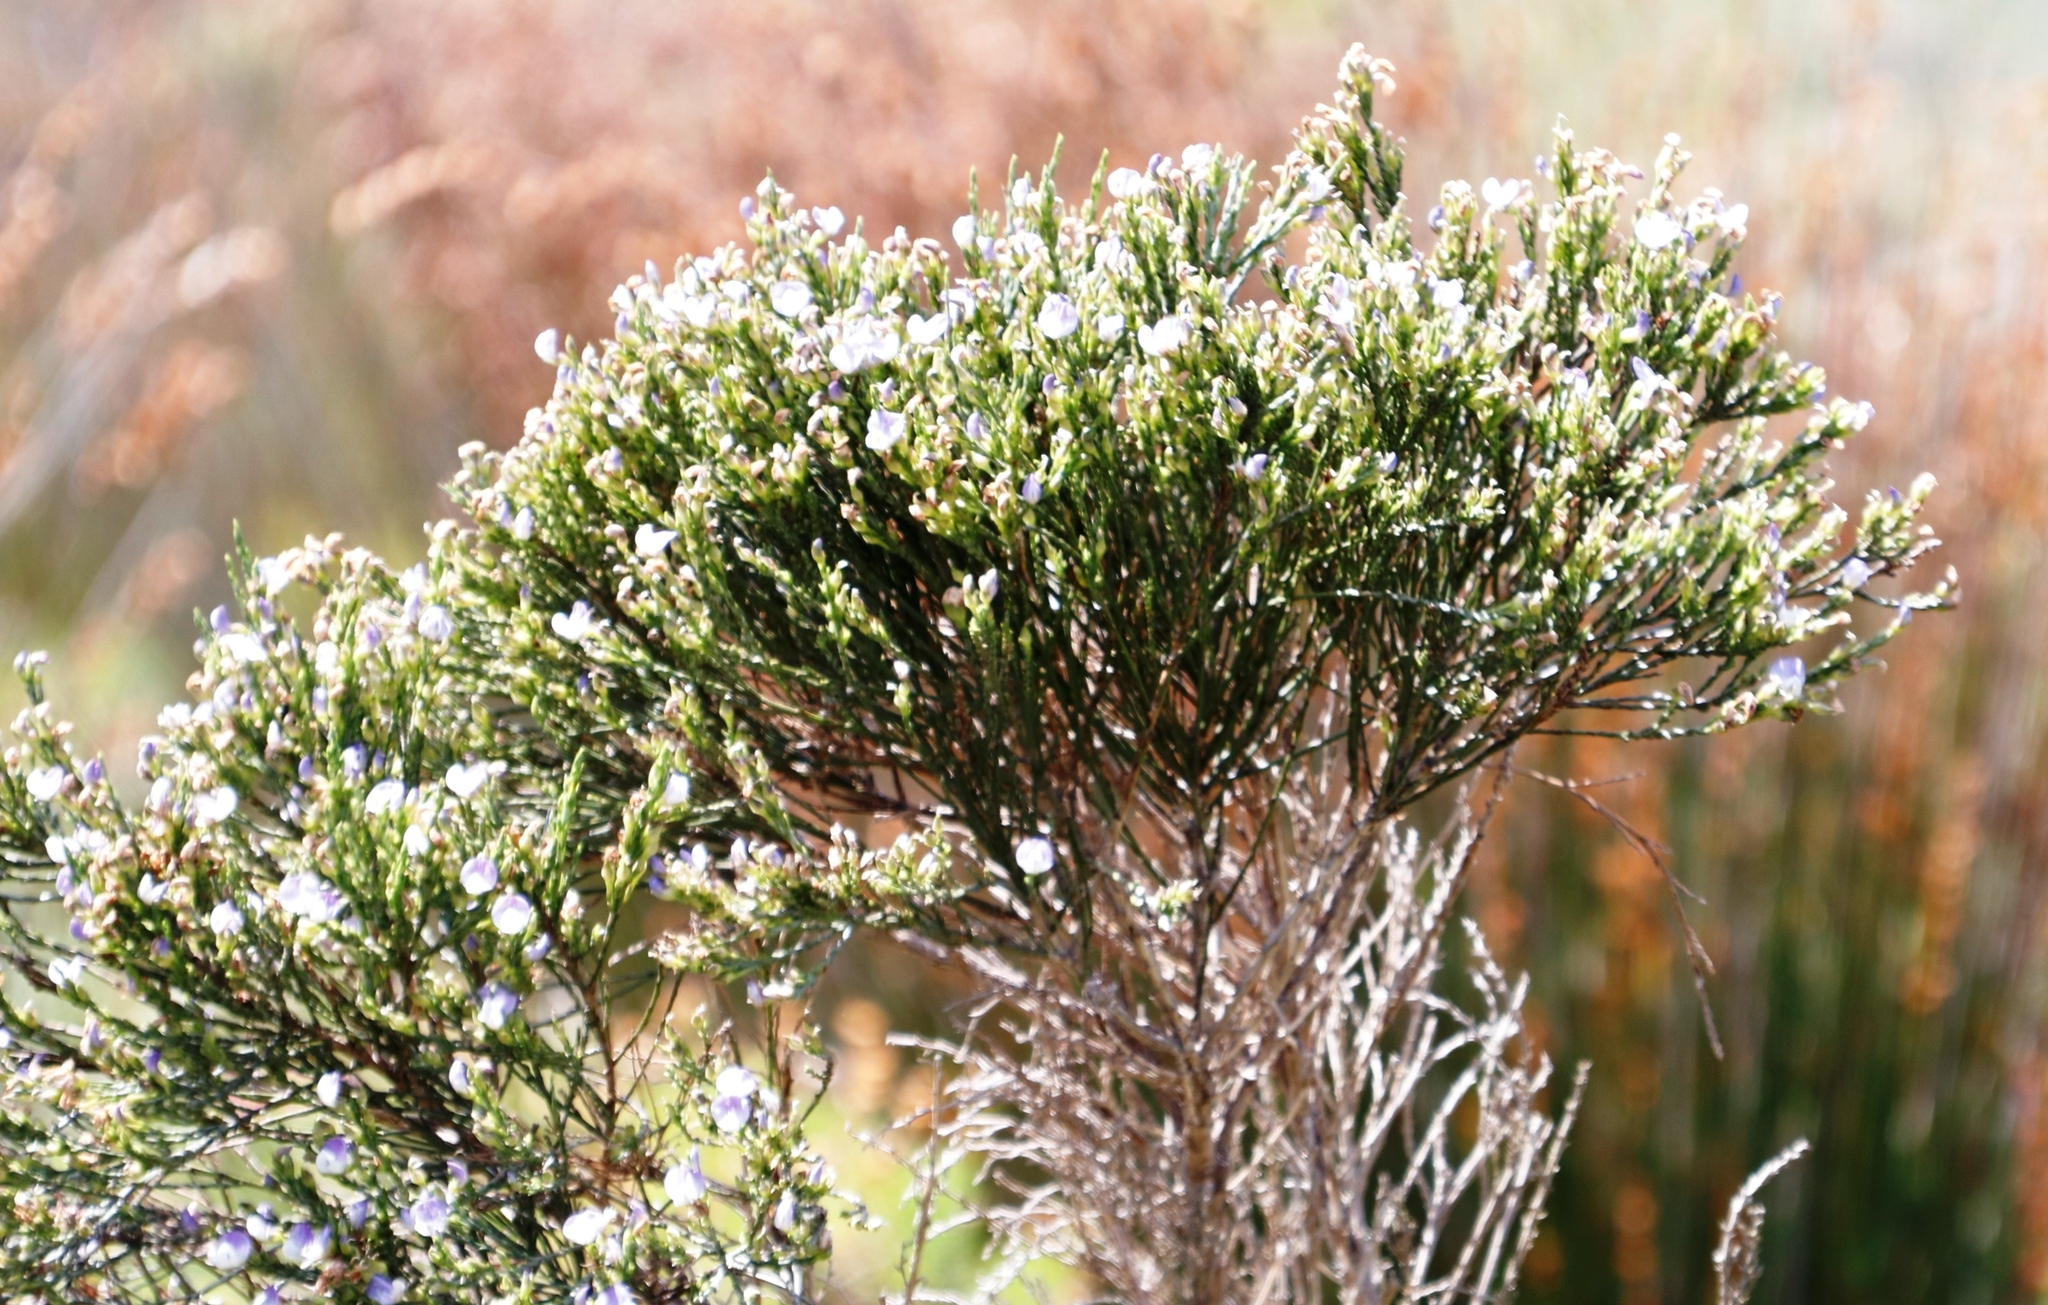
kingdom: Plantae
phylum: Tracheophyta
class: Magnoliopsida
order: Fabales
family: Fabaceae
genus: Psoralea
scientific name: Psoralea congesta
